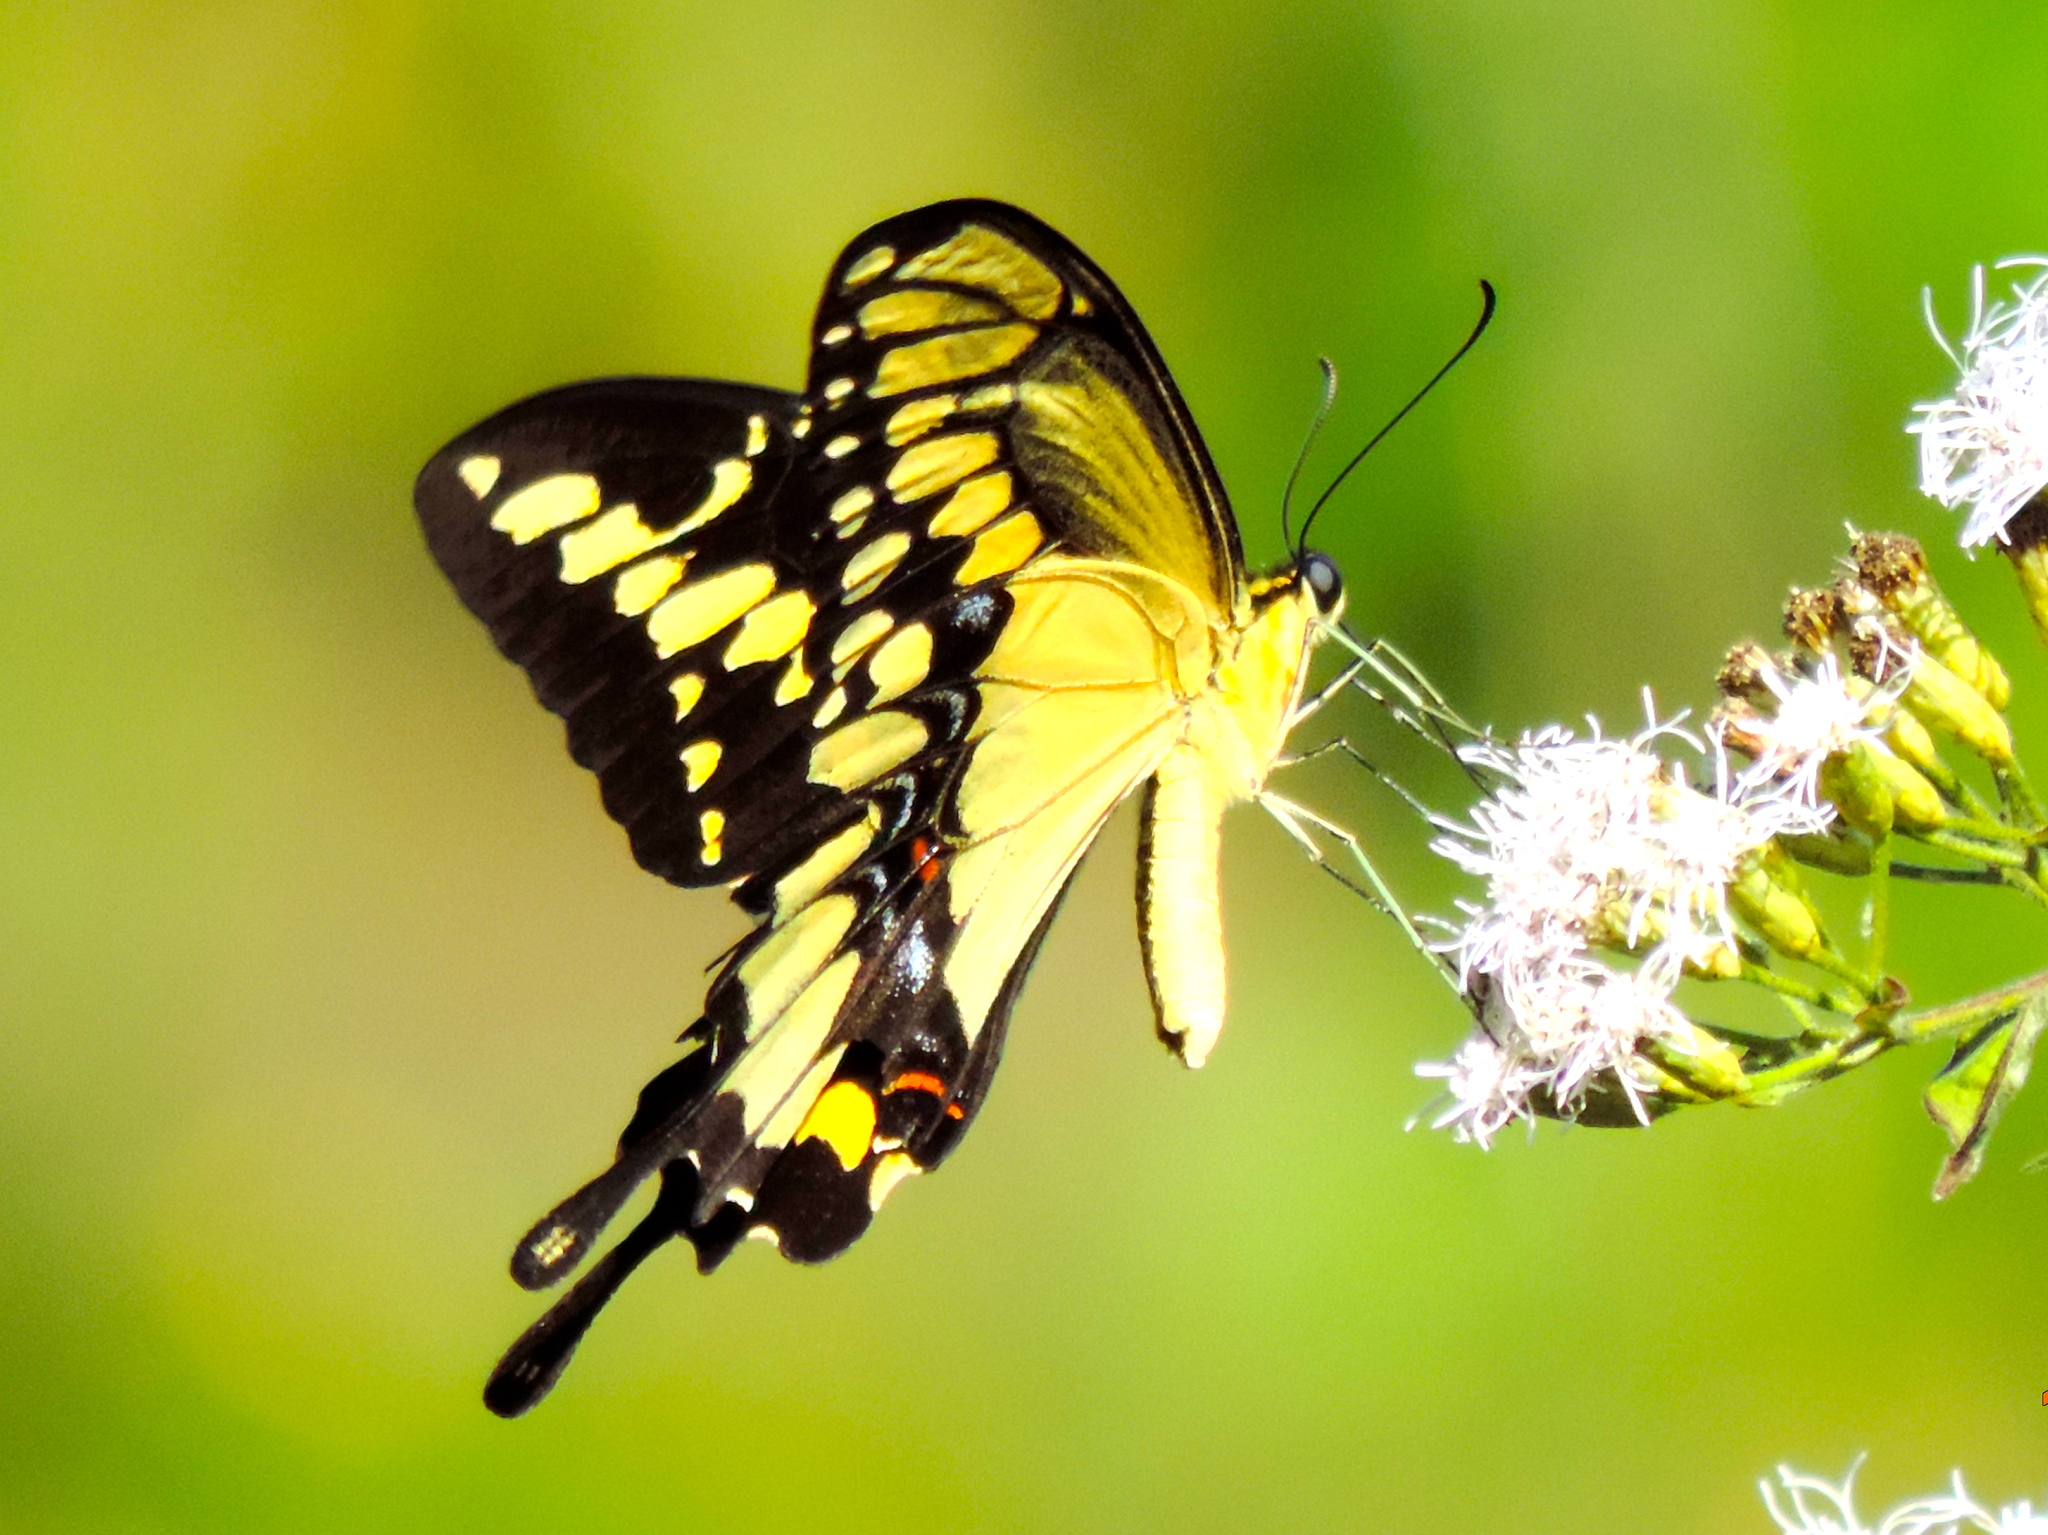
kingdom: Animalia
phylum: Arthropoda
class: Insecta
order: Lepidoptera
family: Papilionidae
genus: Papilio
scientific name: Papilio rumiko
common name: Western giant swallowtail
